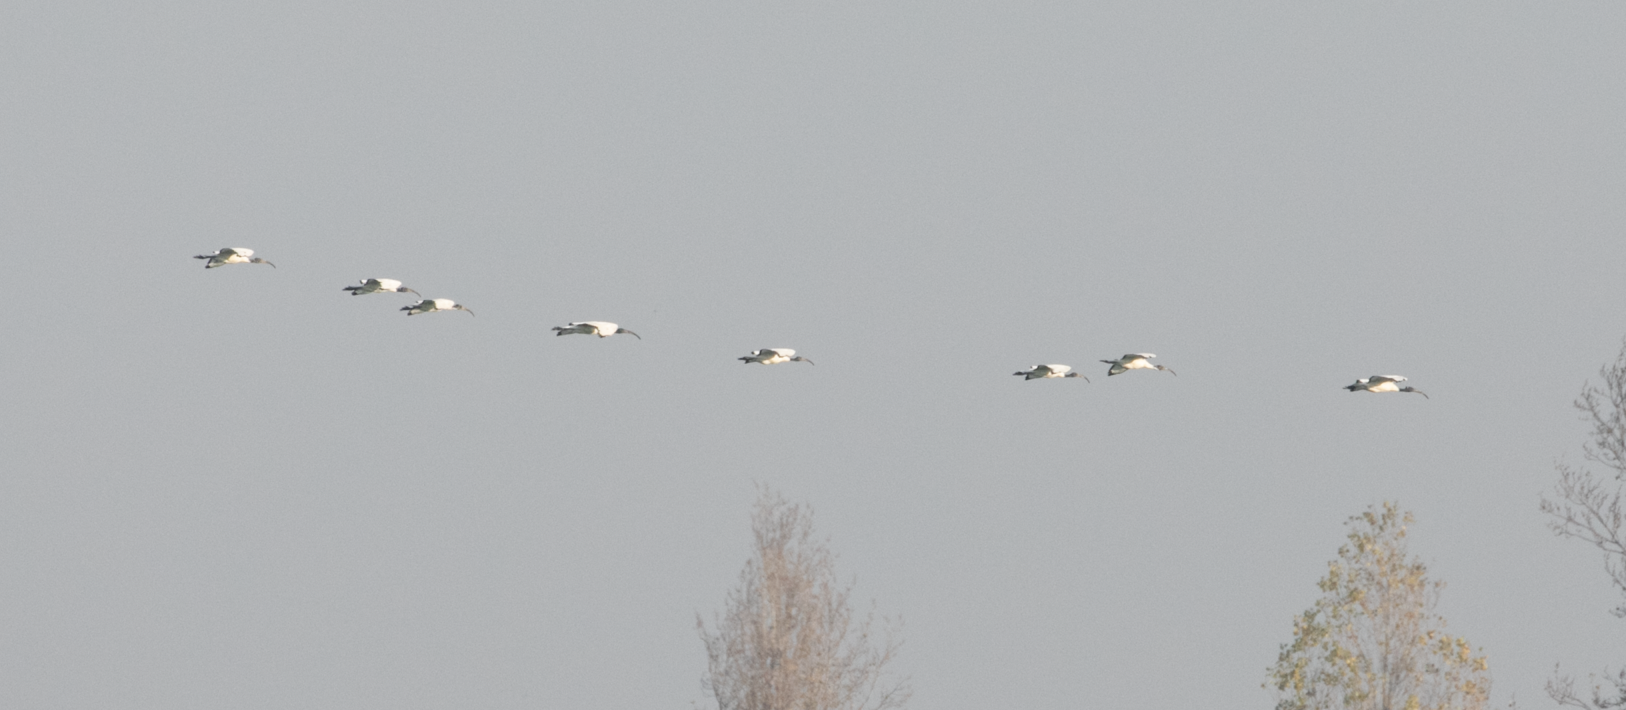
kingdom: Animalia
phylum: Chordata
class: Aves
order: Pelecaniformes
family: Threskiornithidae
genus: Threskiornis
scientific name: Threskiornis aethiopicus
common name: Sacred ibis
